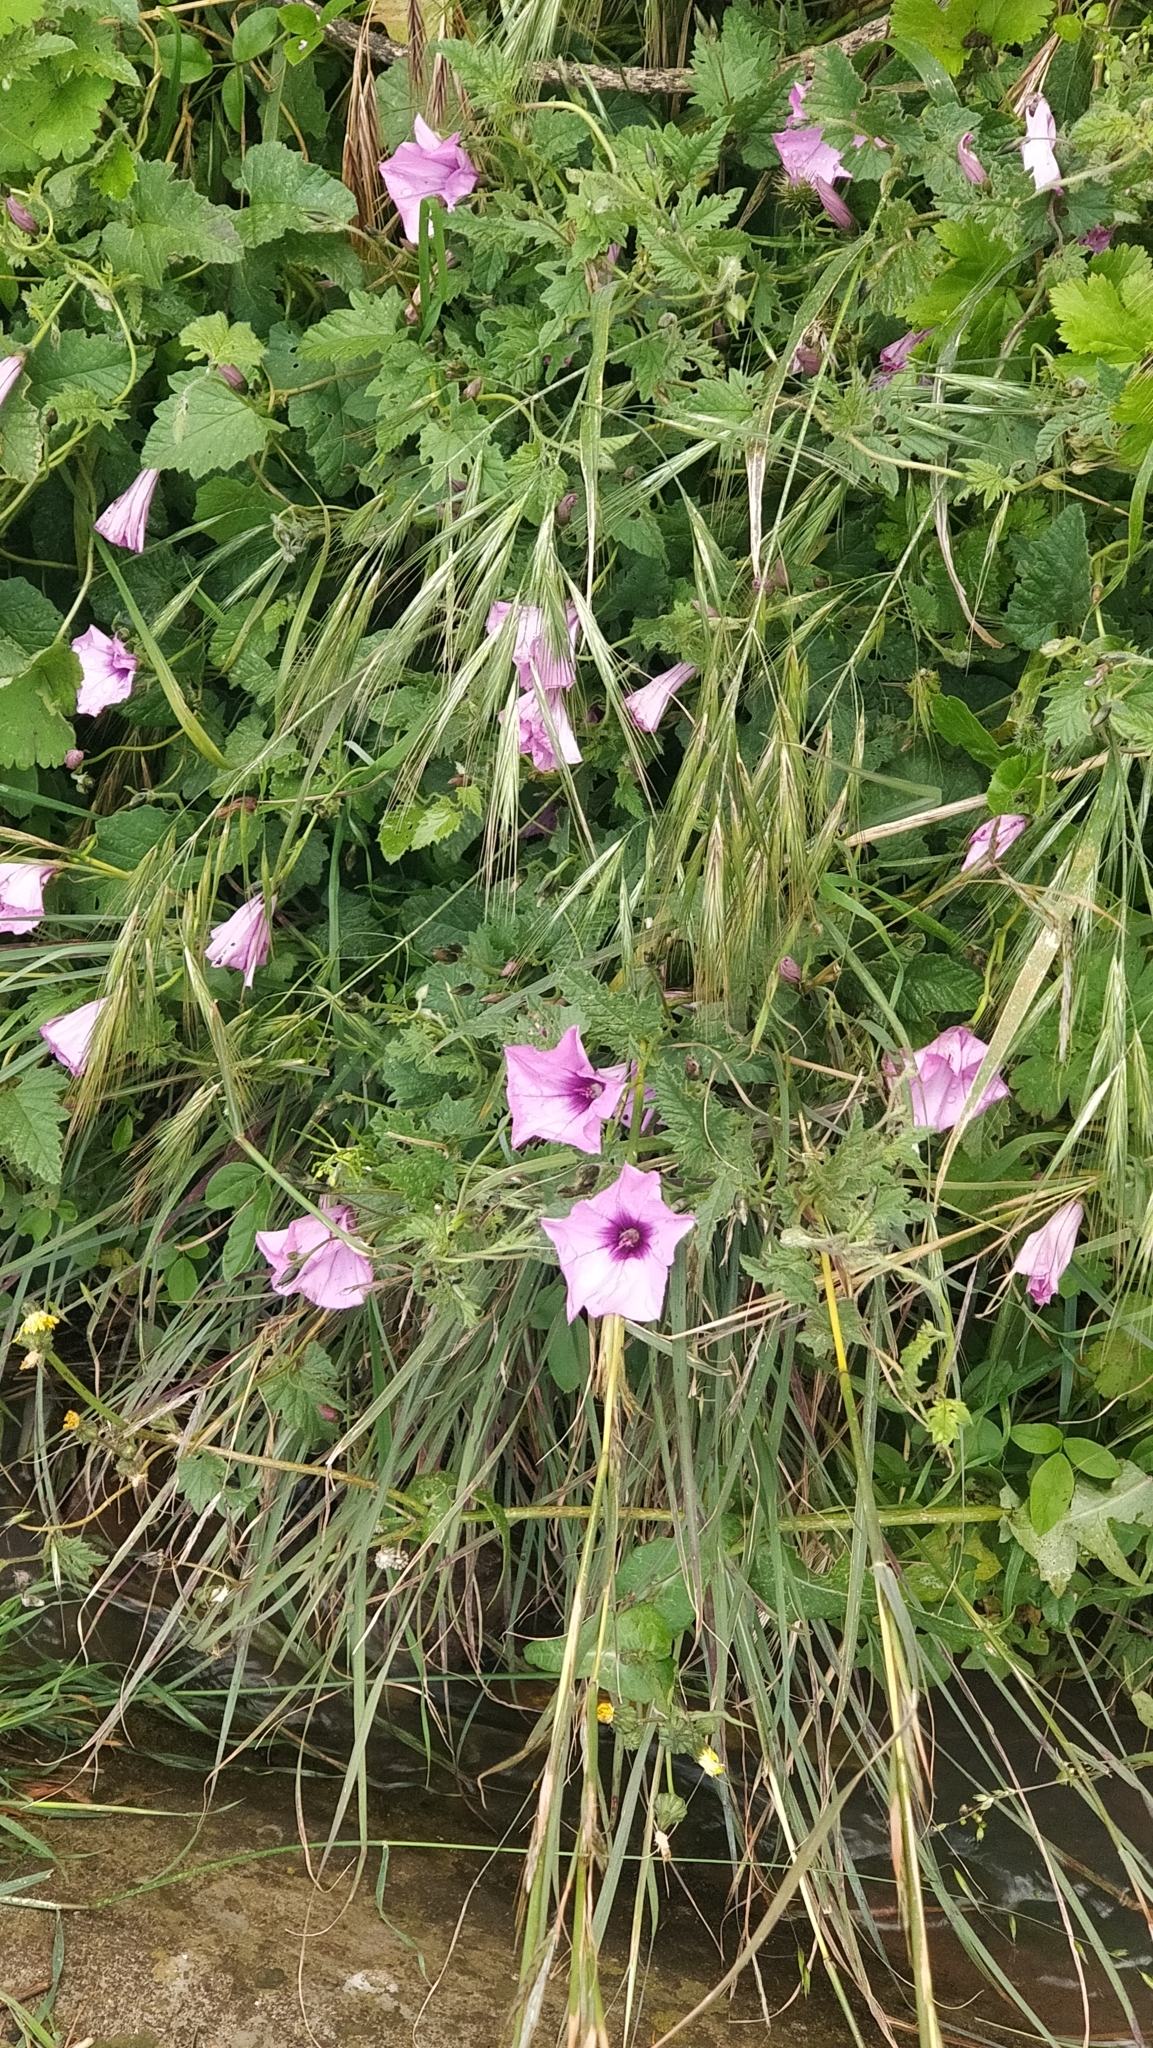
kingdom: Plantae
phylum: Tracheophyta
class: Magnoliopsida
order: Solanales
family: Convolvulaceae
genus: Convolvulus
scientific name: Convolvulus althaeoides
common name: Mallow bindweed
